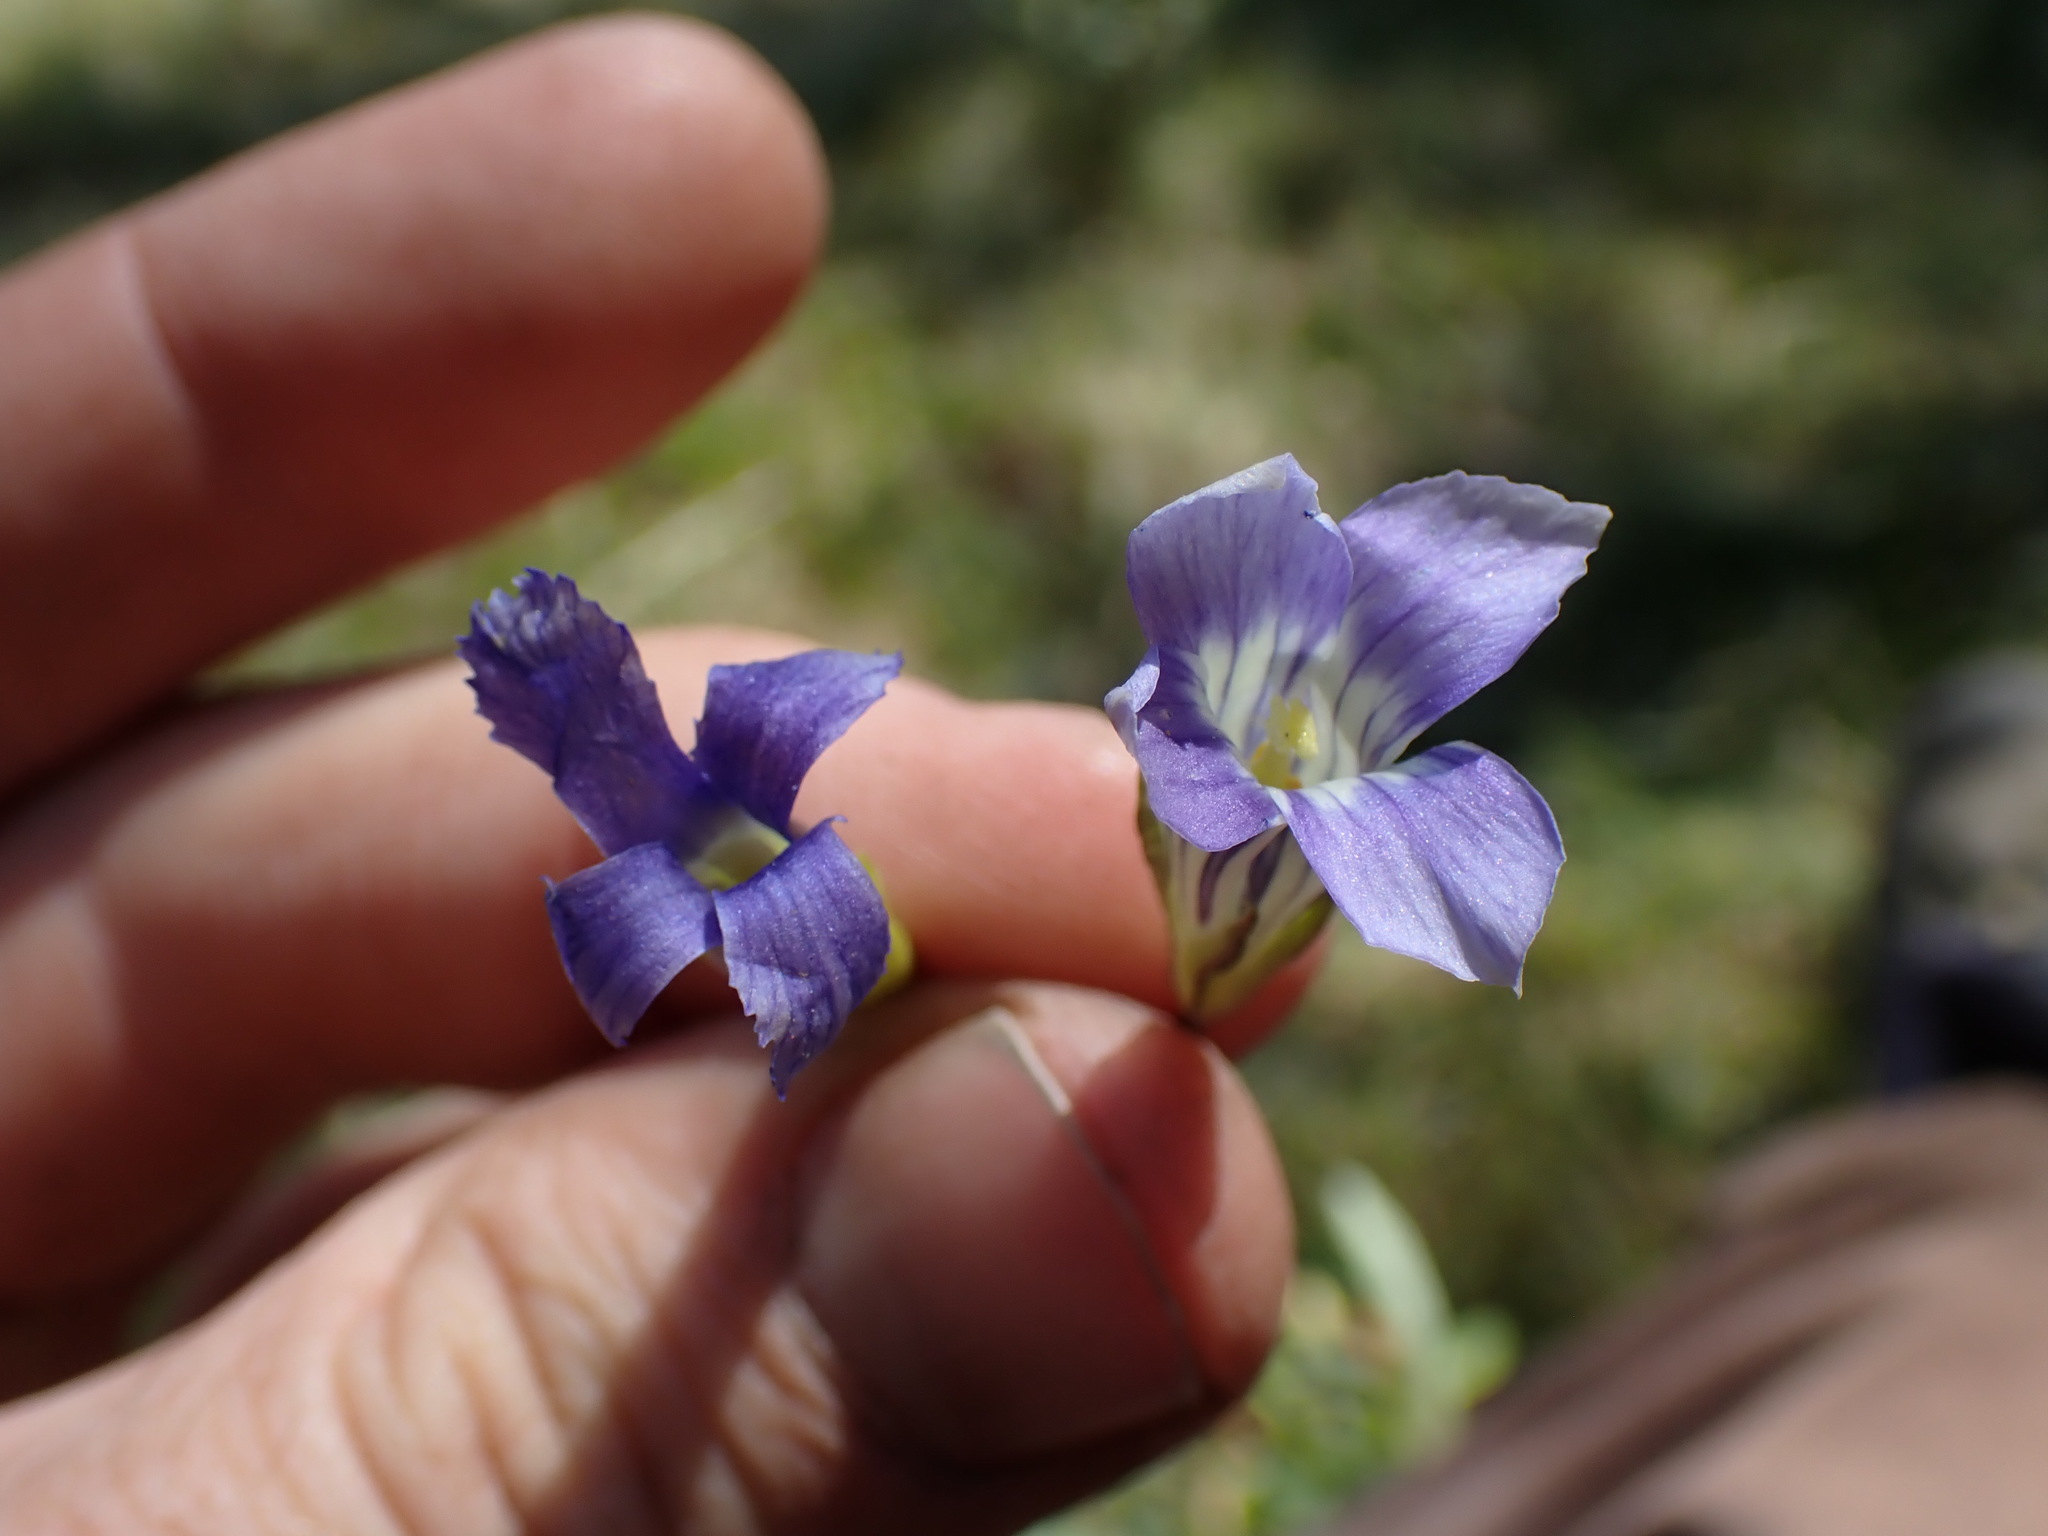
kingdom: Plantae
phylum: Tracheophyta
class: Magnoliopsida
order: Gentianales
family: Gentianaceae
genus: Gentianopsis
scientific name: Gentianopsis holopetala
